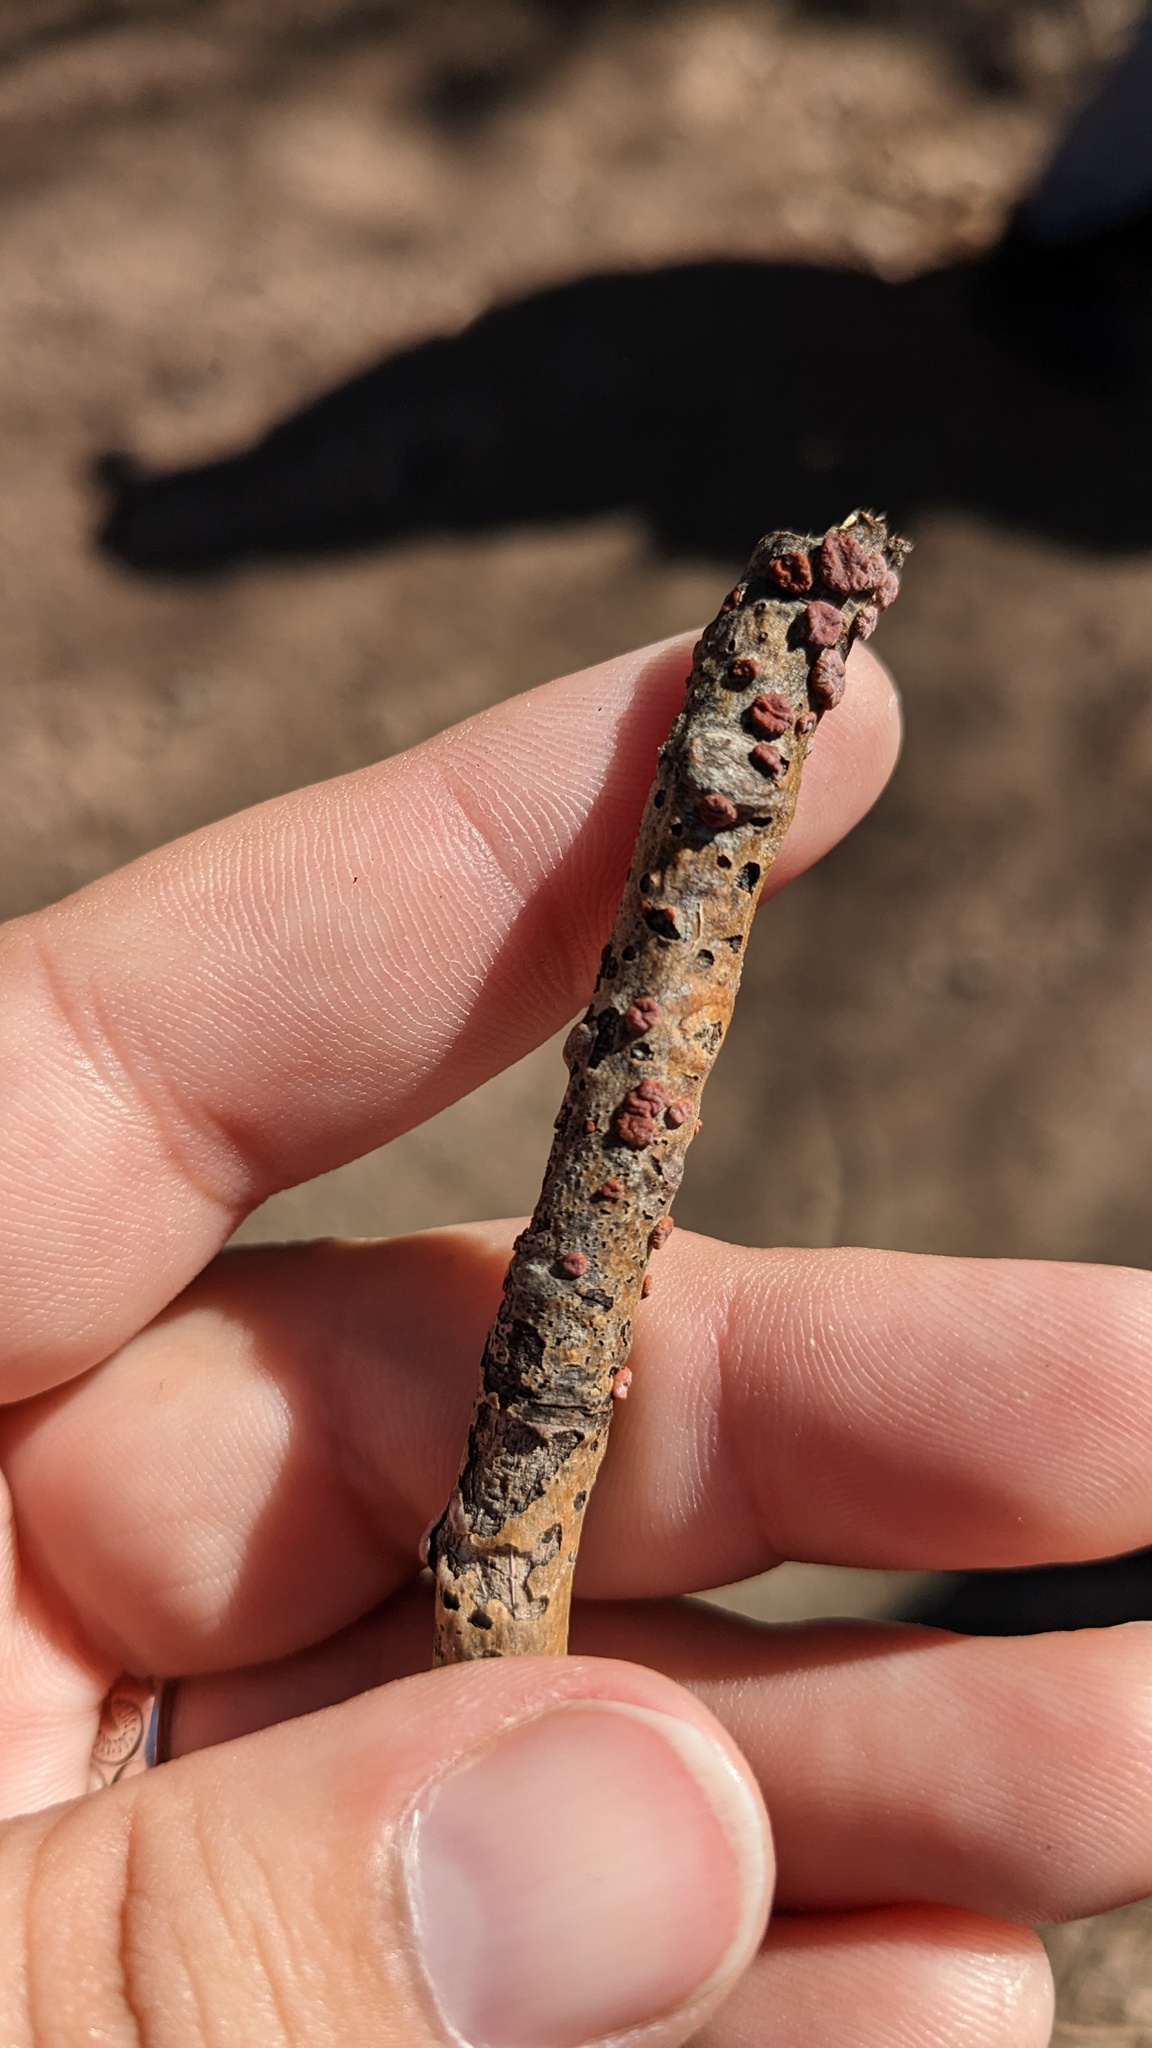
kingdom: Fungi
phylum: Basidiomycota
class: Agaricomycetes
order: Russulales
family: Peniophoraceae
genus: Peniophora
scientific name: Peniophora rufa
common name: Red tree brain fungus
